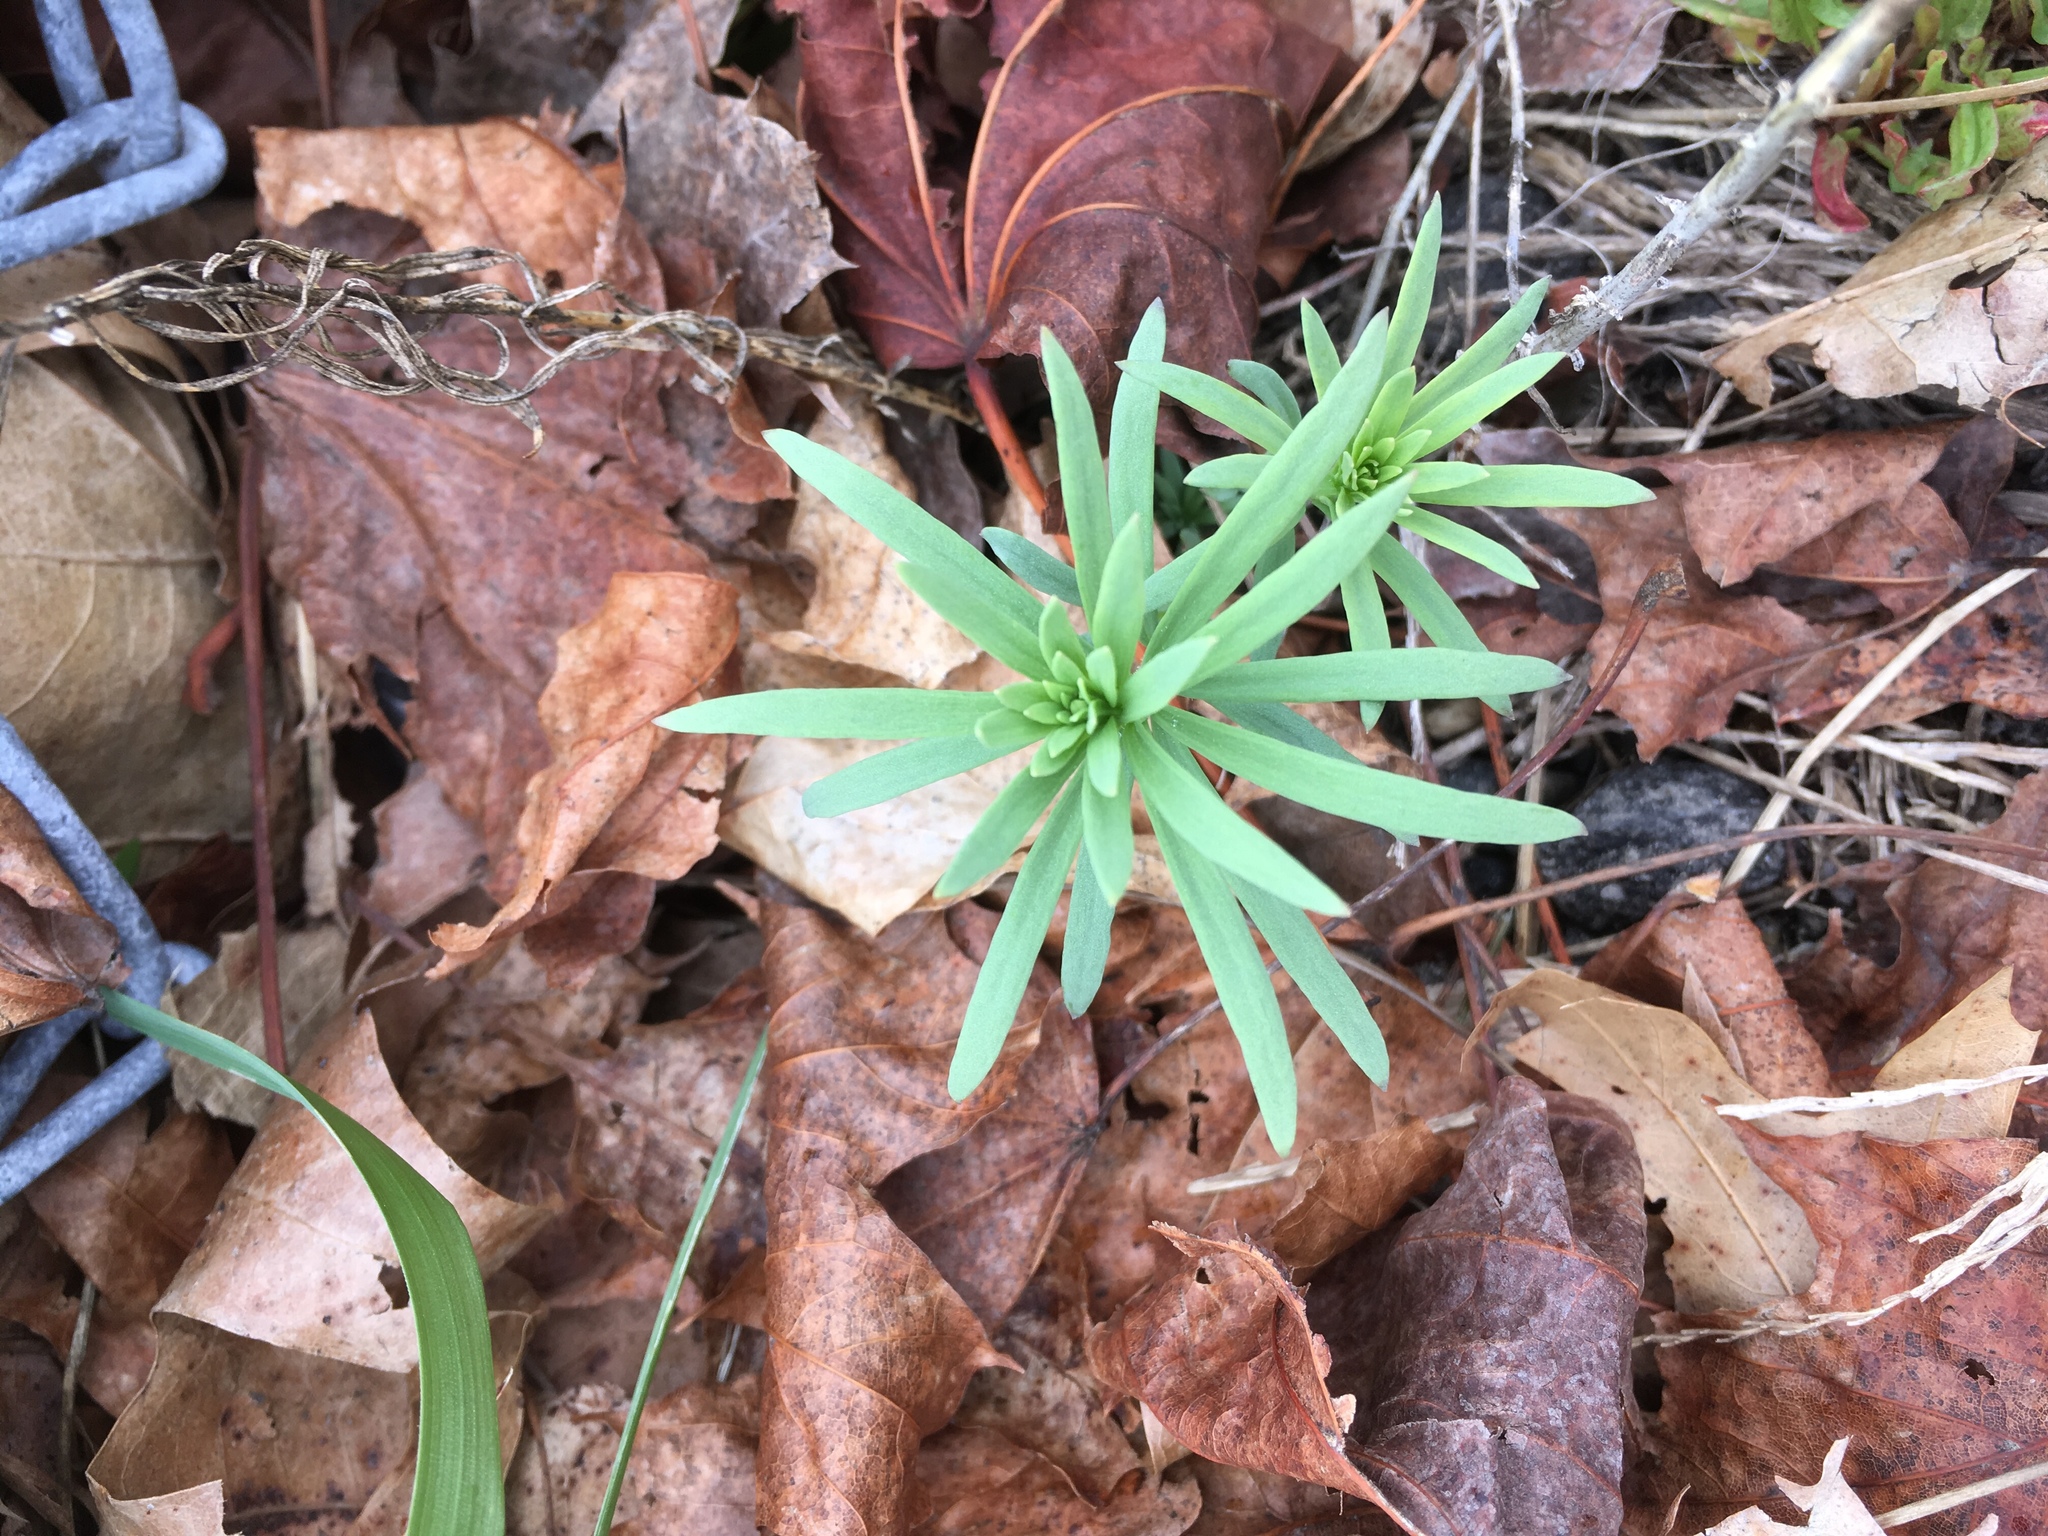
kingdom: Plantae
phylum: Tracheophyta
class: Magnoliopsida
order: Lamiales
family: Plantaginaceae
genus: Linaria
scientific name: Linaria vulgaris
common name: Butter and eggs
